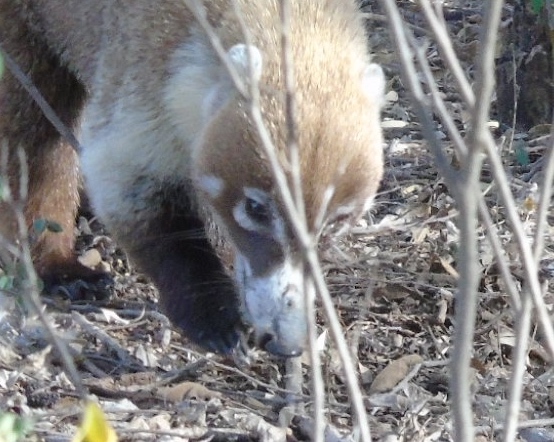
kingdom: Animalia
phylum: Chordata
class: Mammalia
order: Carnivora
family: Procyonidae
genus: Nasua
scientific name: Nasua narica
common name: White-nosed coati
